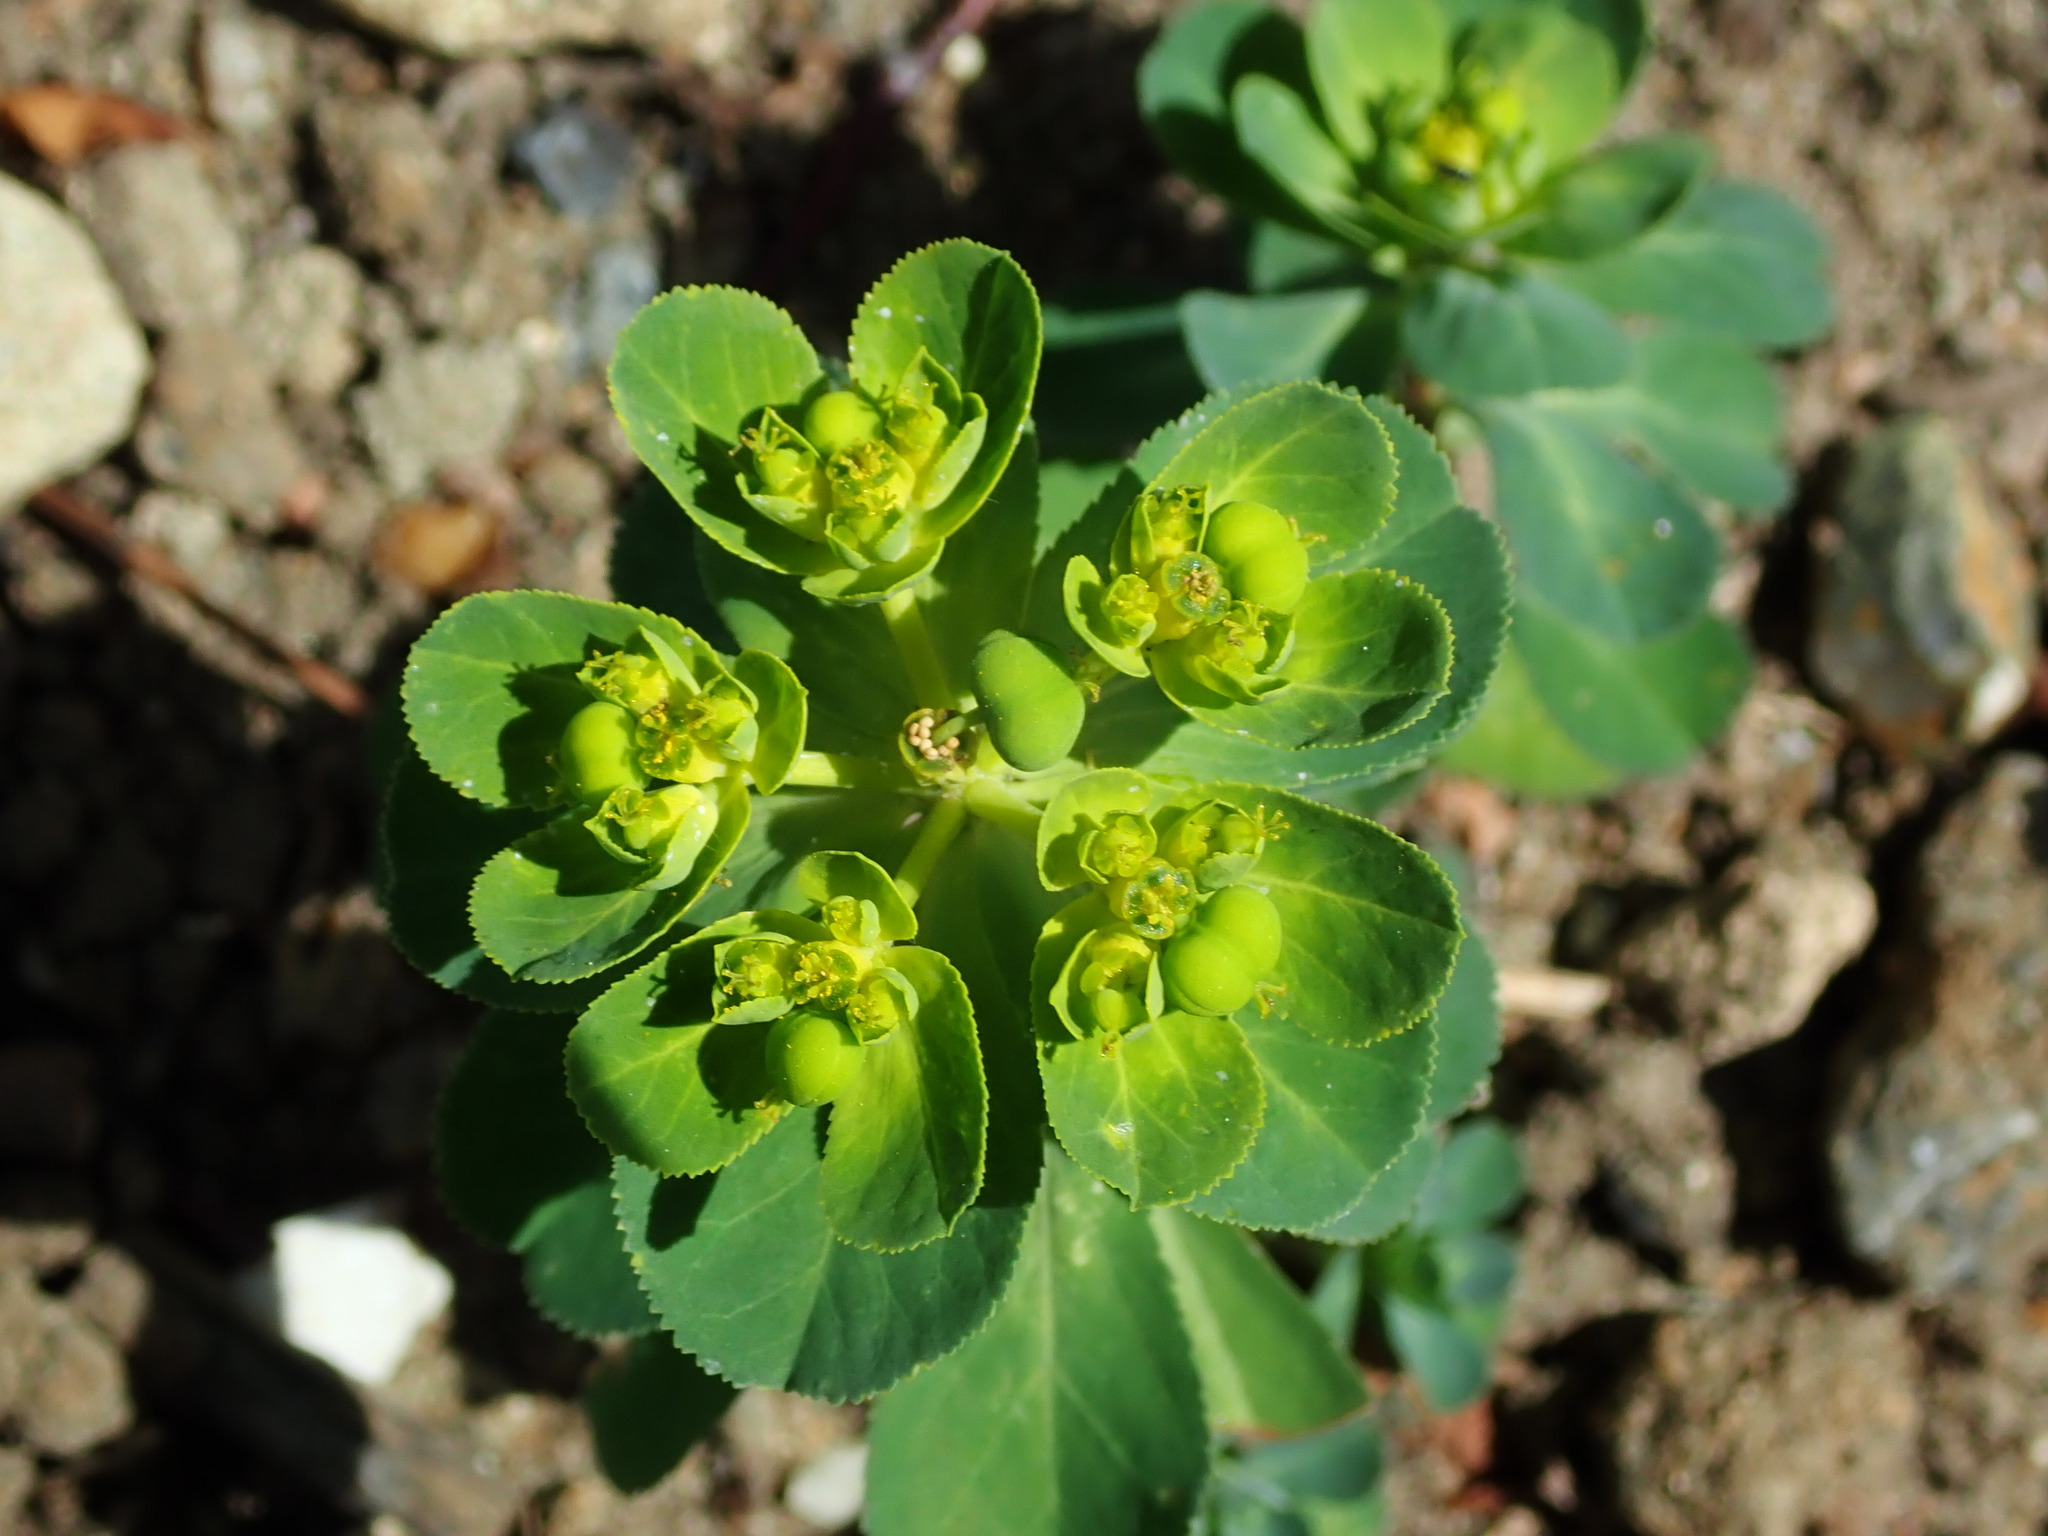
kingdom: Plantae
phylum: Tracheophyta
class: Magnoliopsida
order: Malpighiales
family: Euphorbiaceae
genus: Euphorbia
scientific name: Euphorbia helioscopia
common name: Sun spurge
